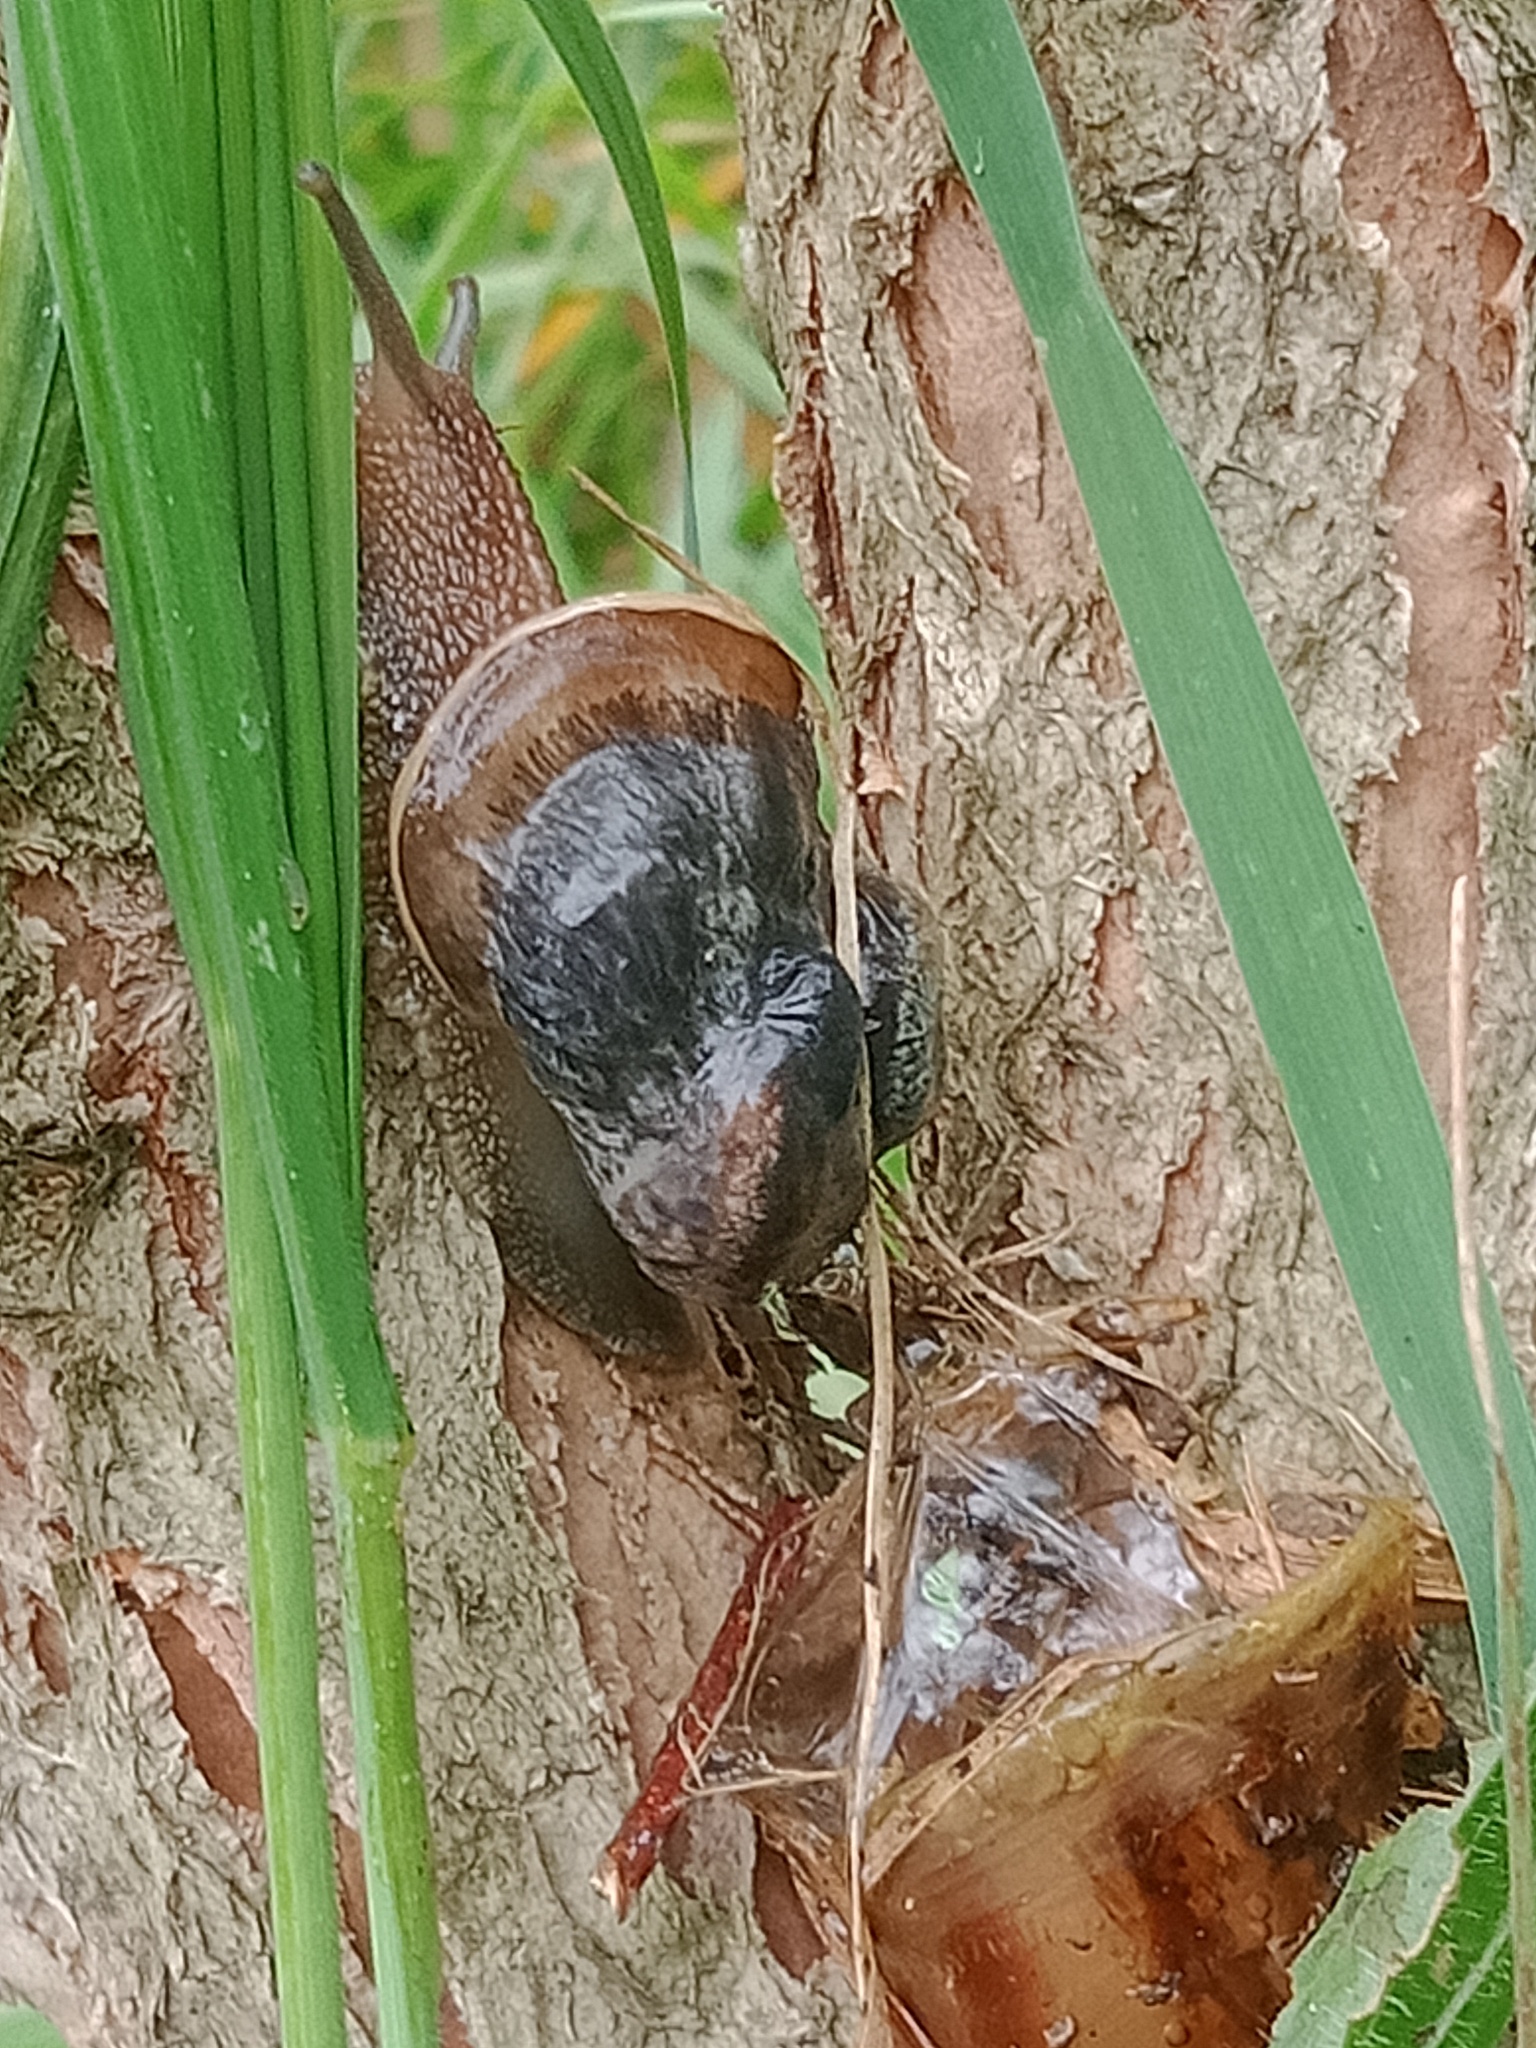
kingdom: Animalia
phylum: Mollusca
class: Gastropoda
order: Stylommatophora
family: Helicidae
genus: Cornu
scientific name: Cornu aspersum
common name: Brown garden snail
